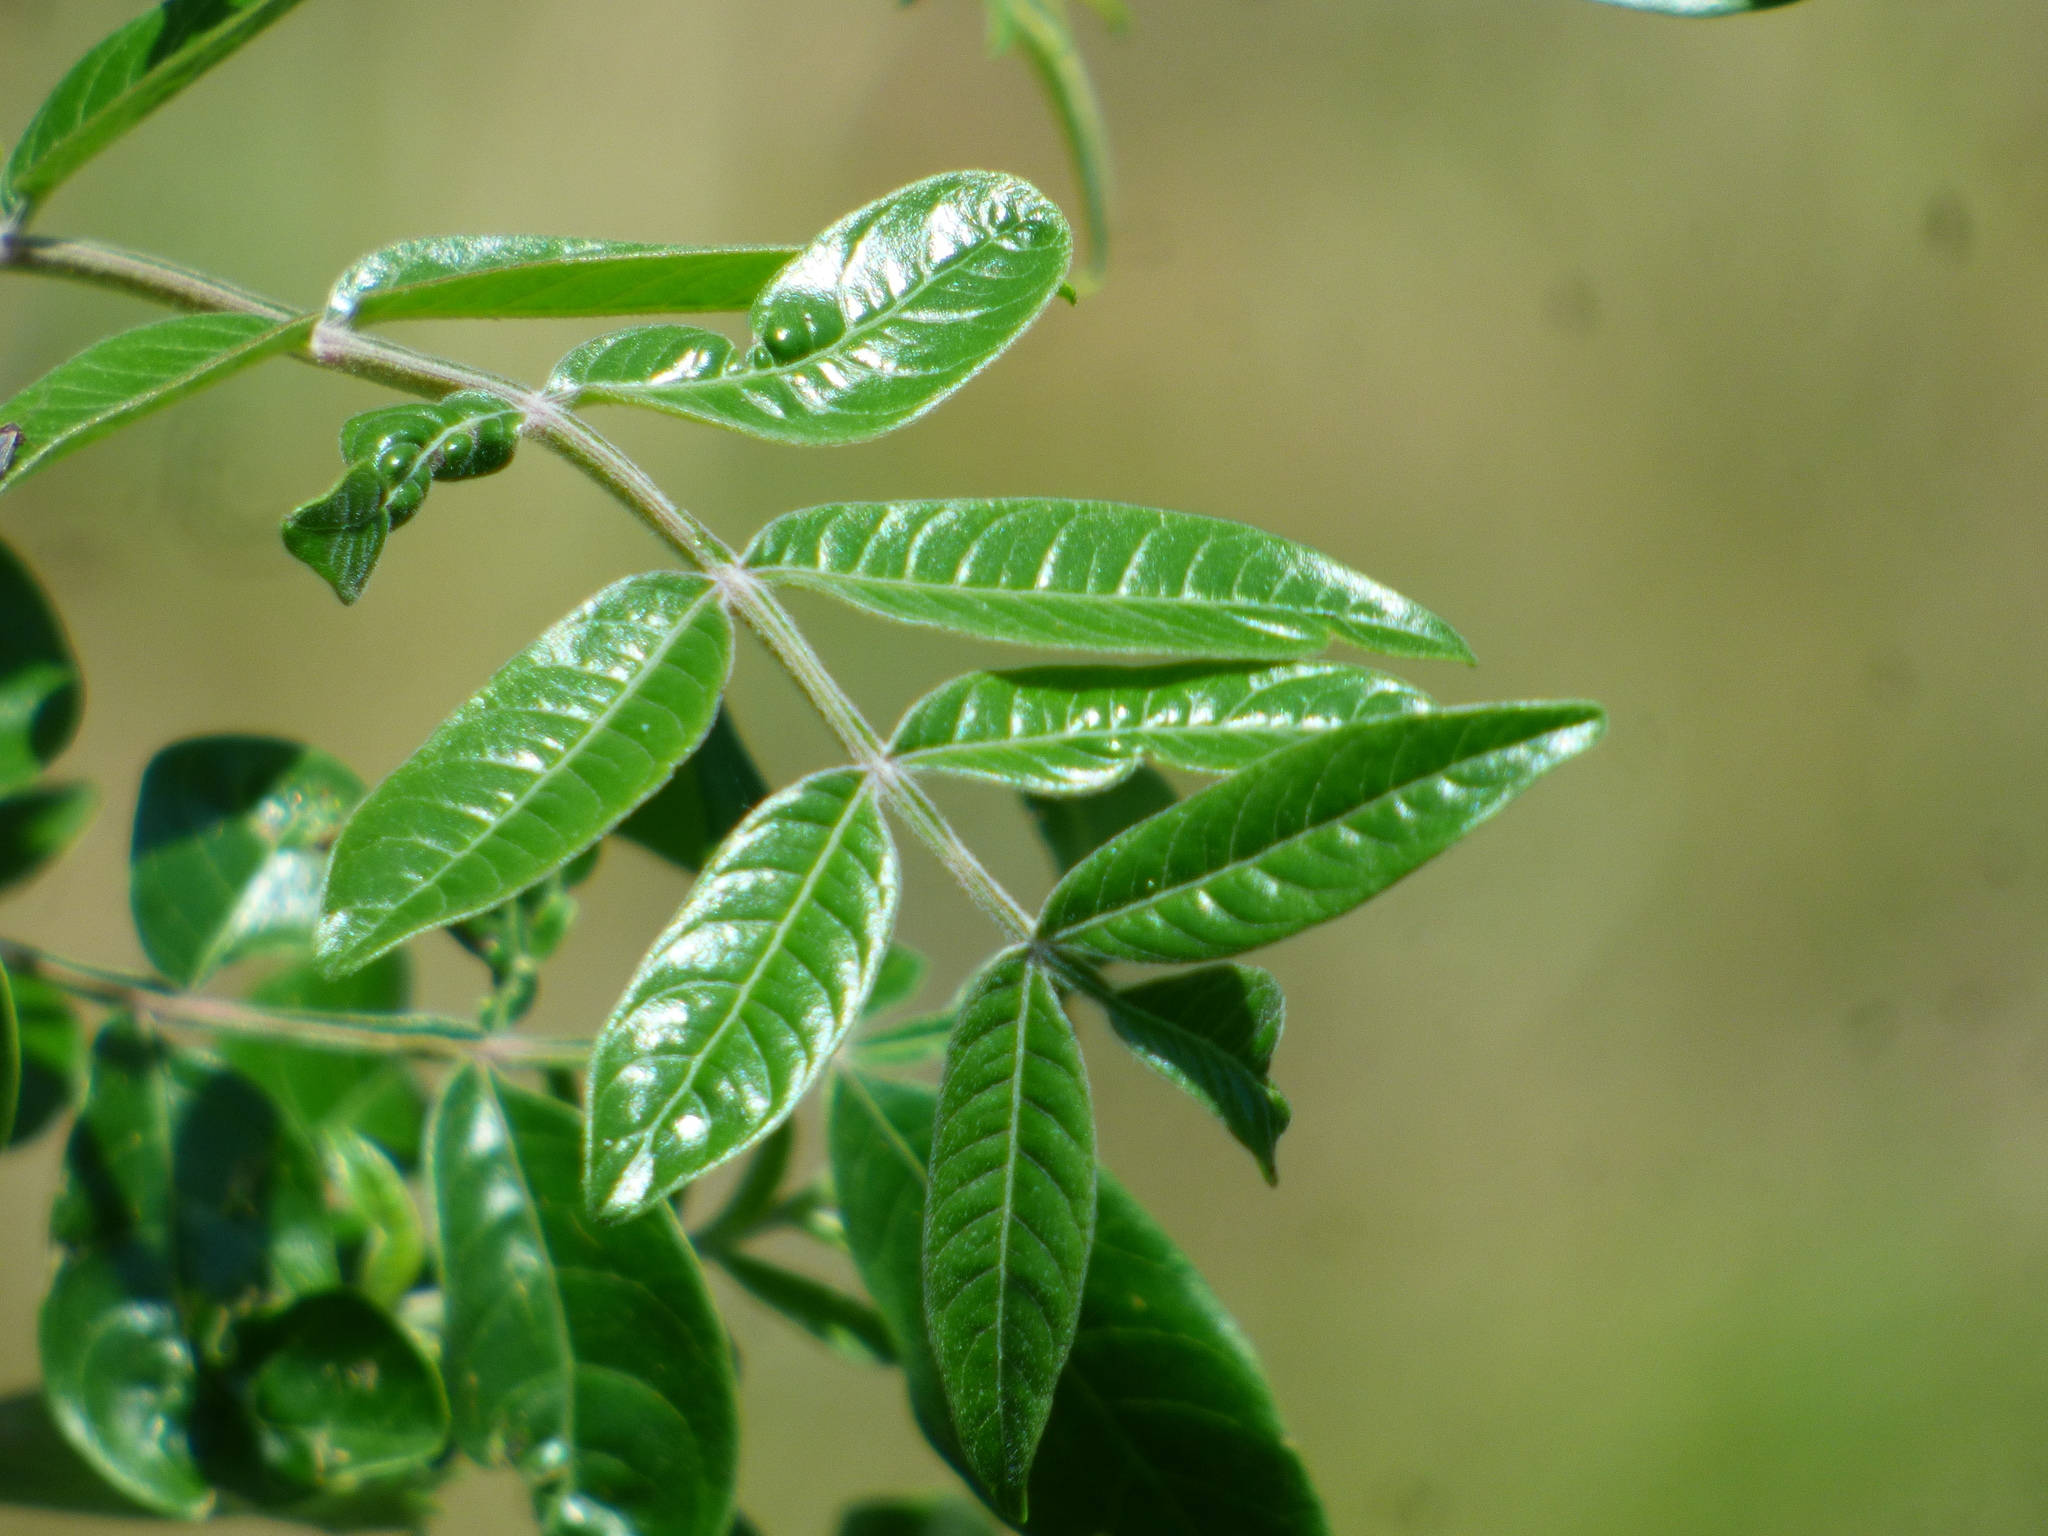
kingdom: Plantae
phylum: Tracheophyta
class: Magnoliopsida
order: Sapindales
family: Anacardiaceae
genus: Rhus
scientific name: Rhus copallina
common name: Shining sumac
